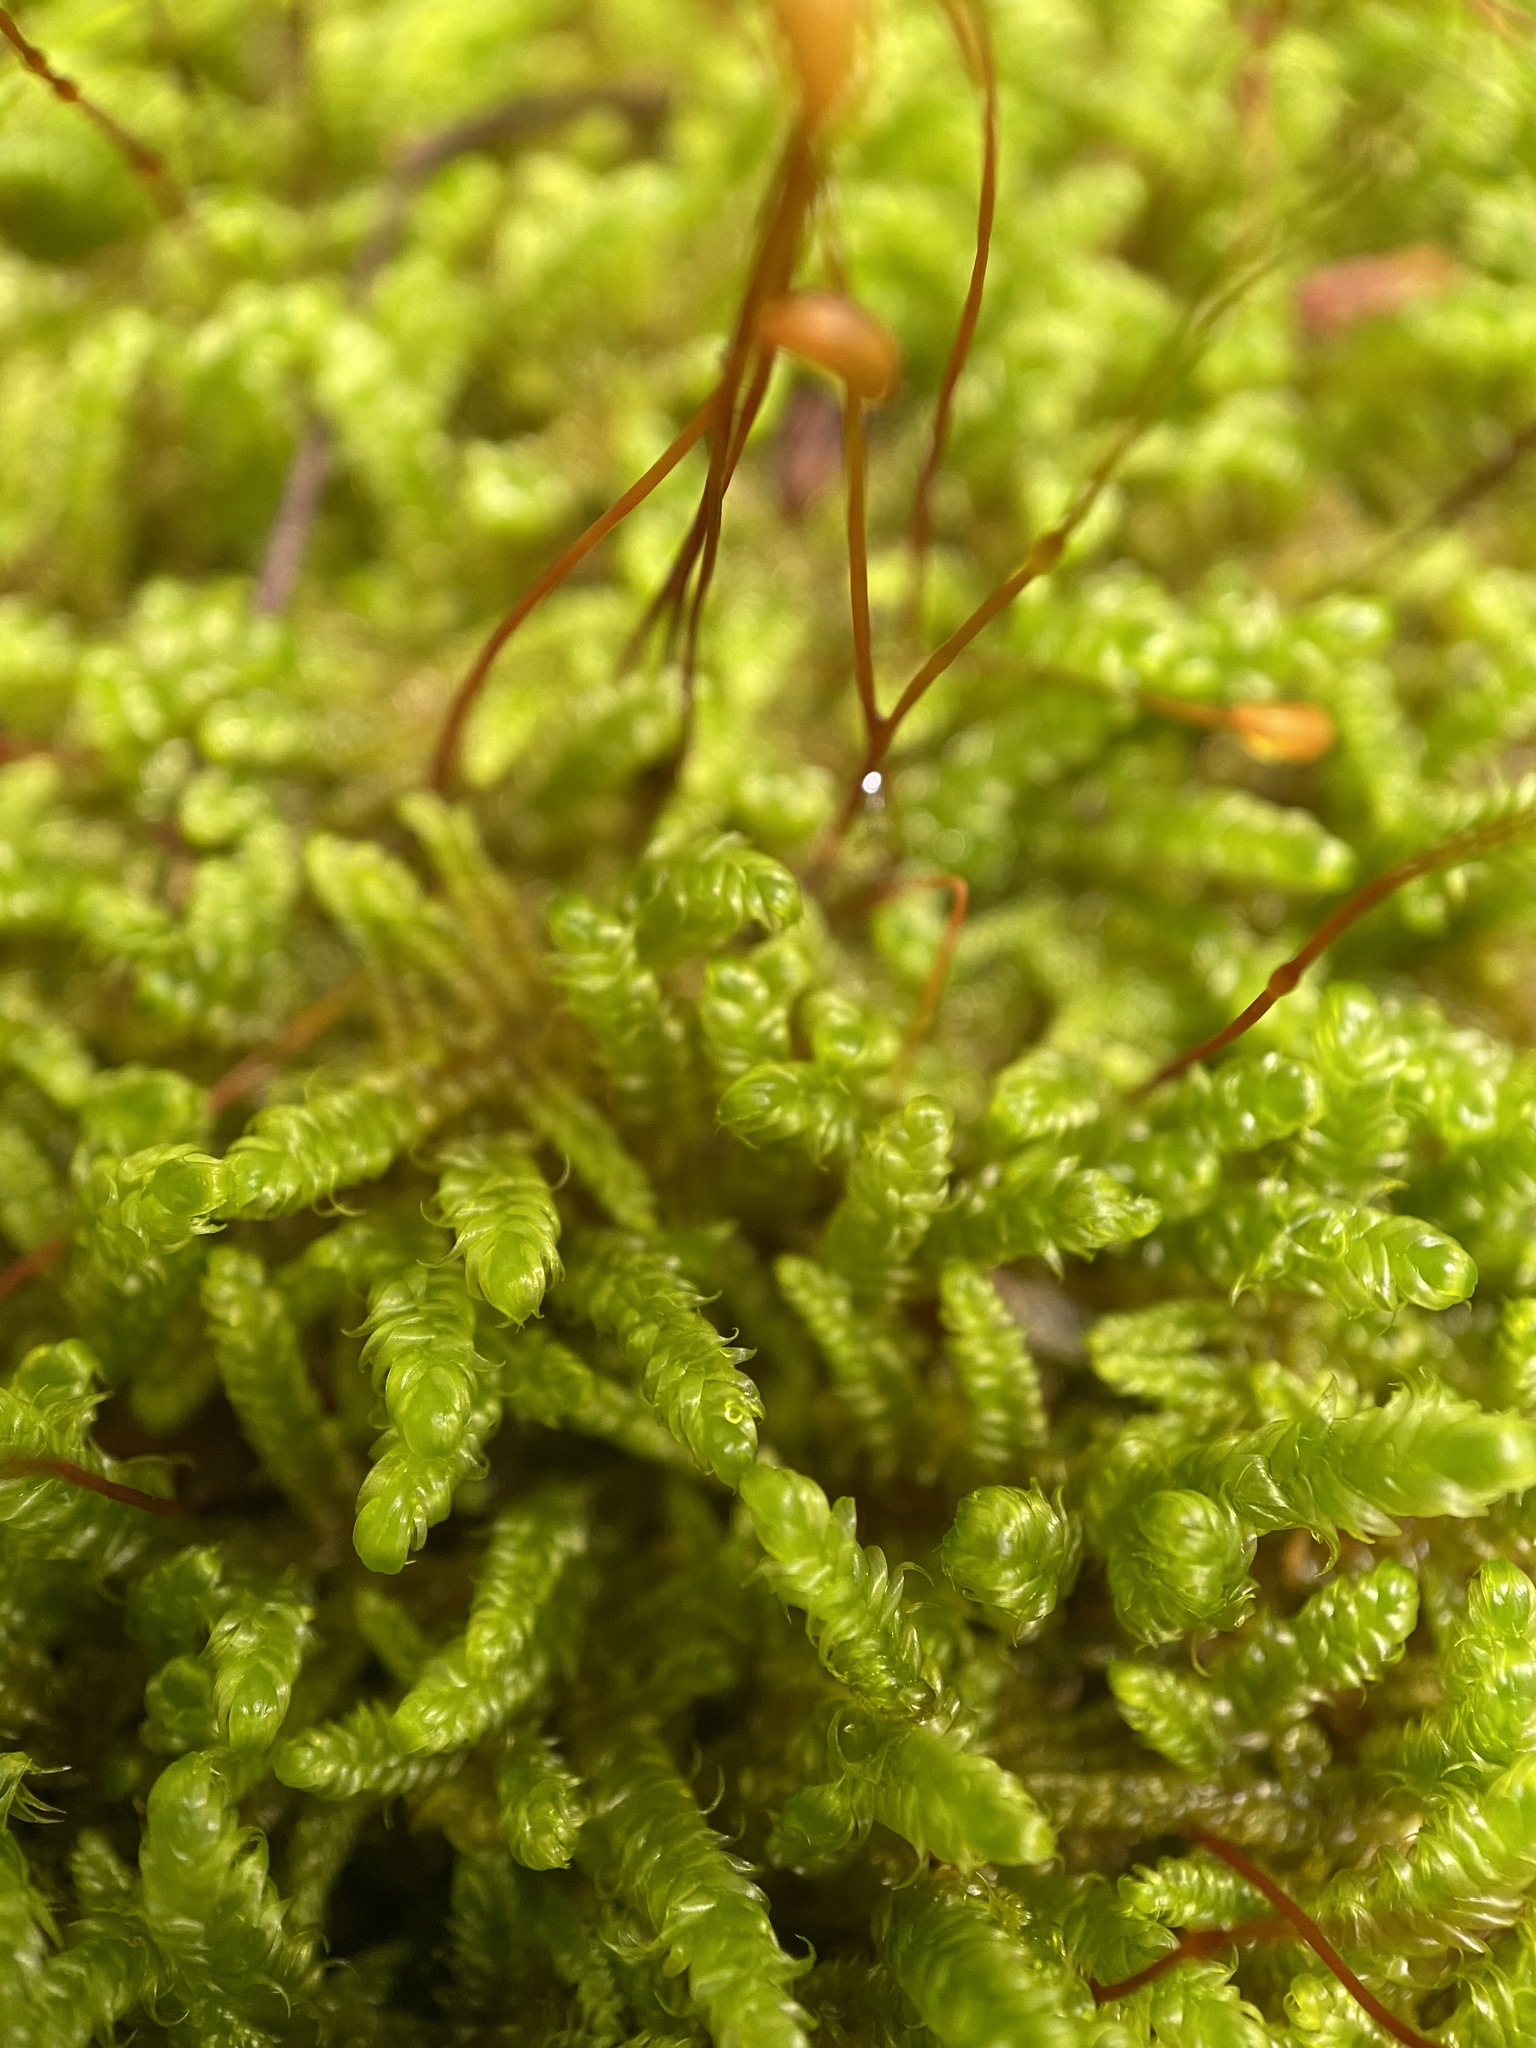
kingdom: Plantae
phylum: Bryophyta
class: Bryopsida
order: Hypnales
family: Callicladiaceae
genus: Callicladium
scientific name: Callicladium imponens
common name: Brocade moss
